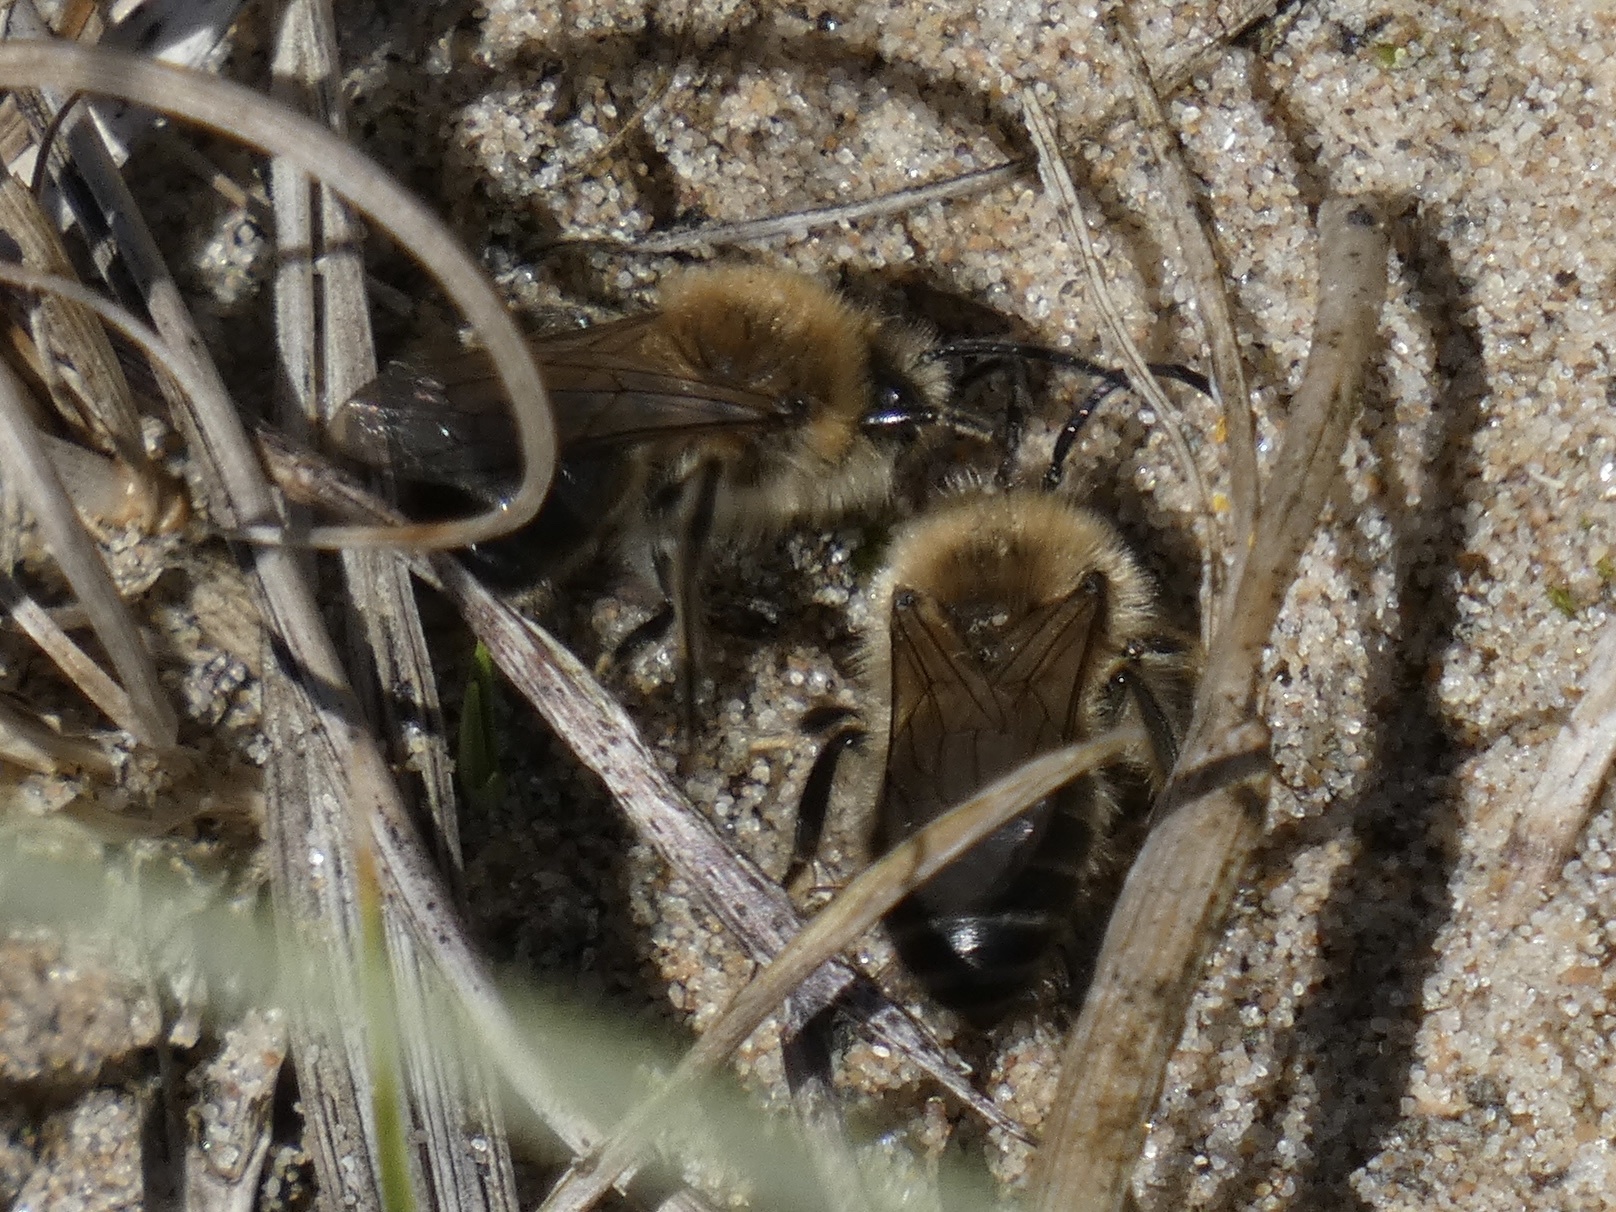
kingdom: Animalia
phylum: Arthropoda
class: Insecta
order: Hymenoptera
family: Colletidae
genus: Colletes
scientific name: Colletes cunicularius
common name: Early colletes
